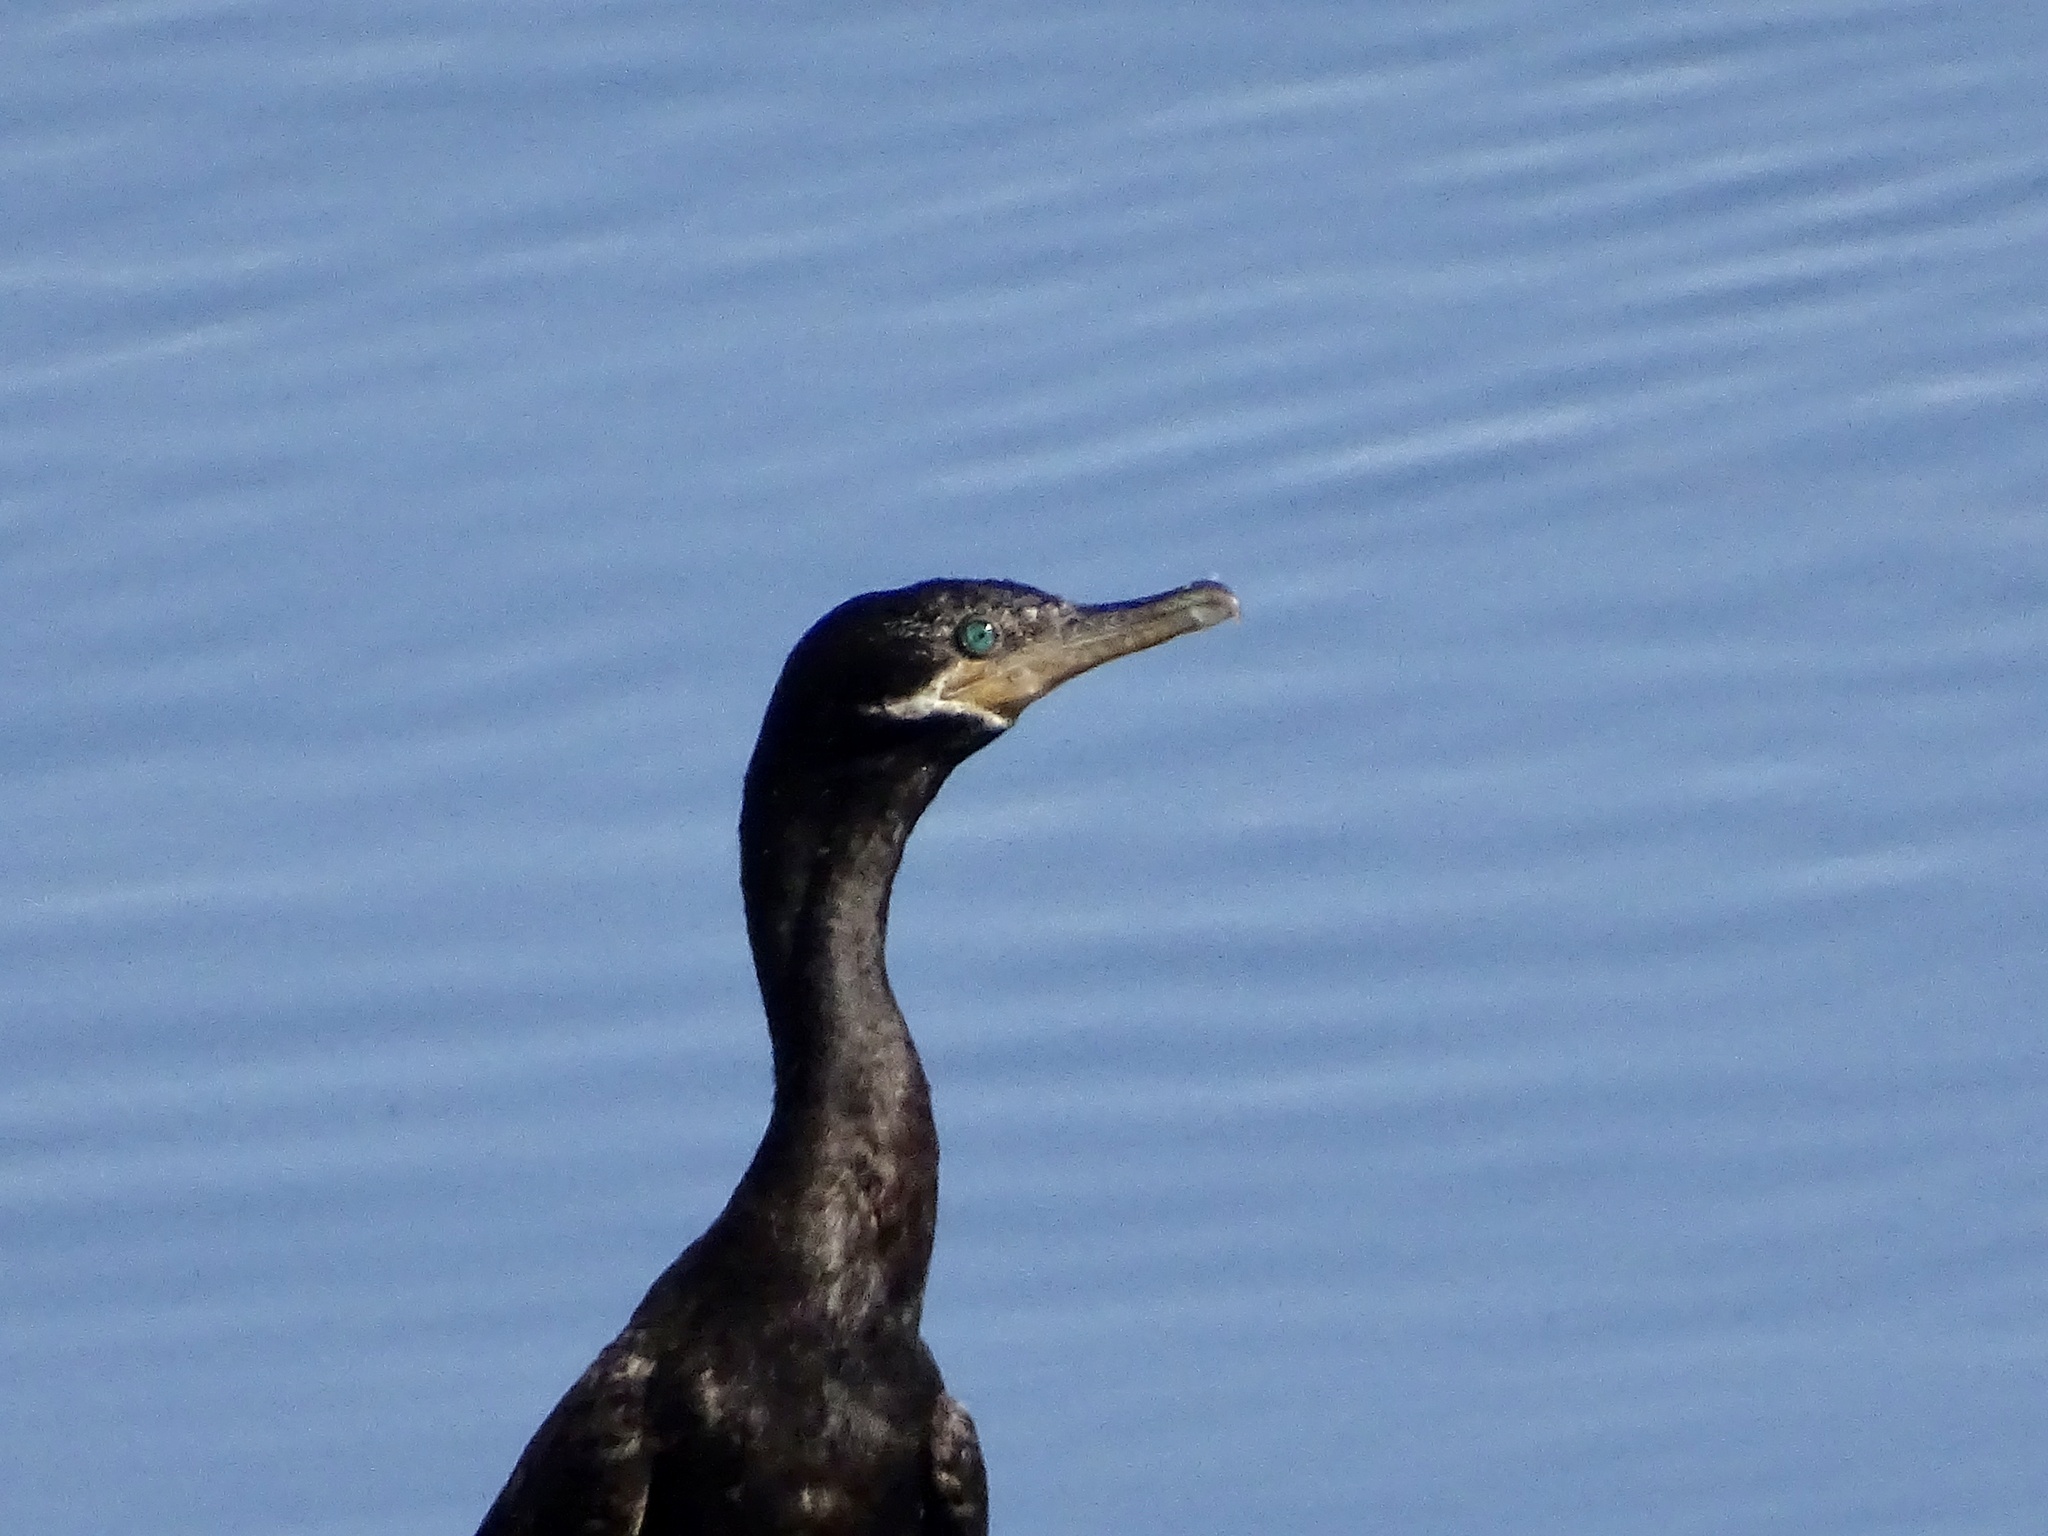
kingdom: Animalia
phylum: Chordata
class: Aves
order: Suliformes
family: Phalacrocoracidae
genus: Phalacrocorax
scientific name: Phalacrocorax brasilianus
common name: Neotropic cormorant
